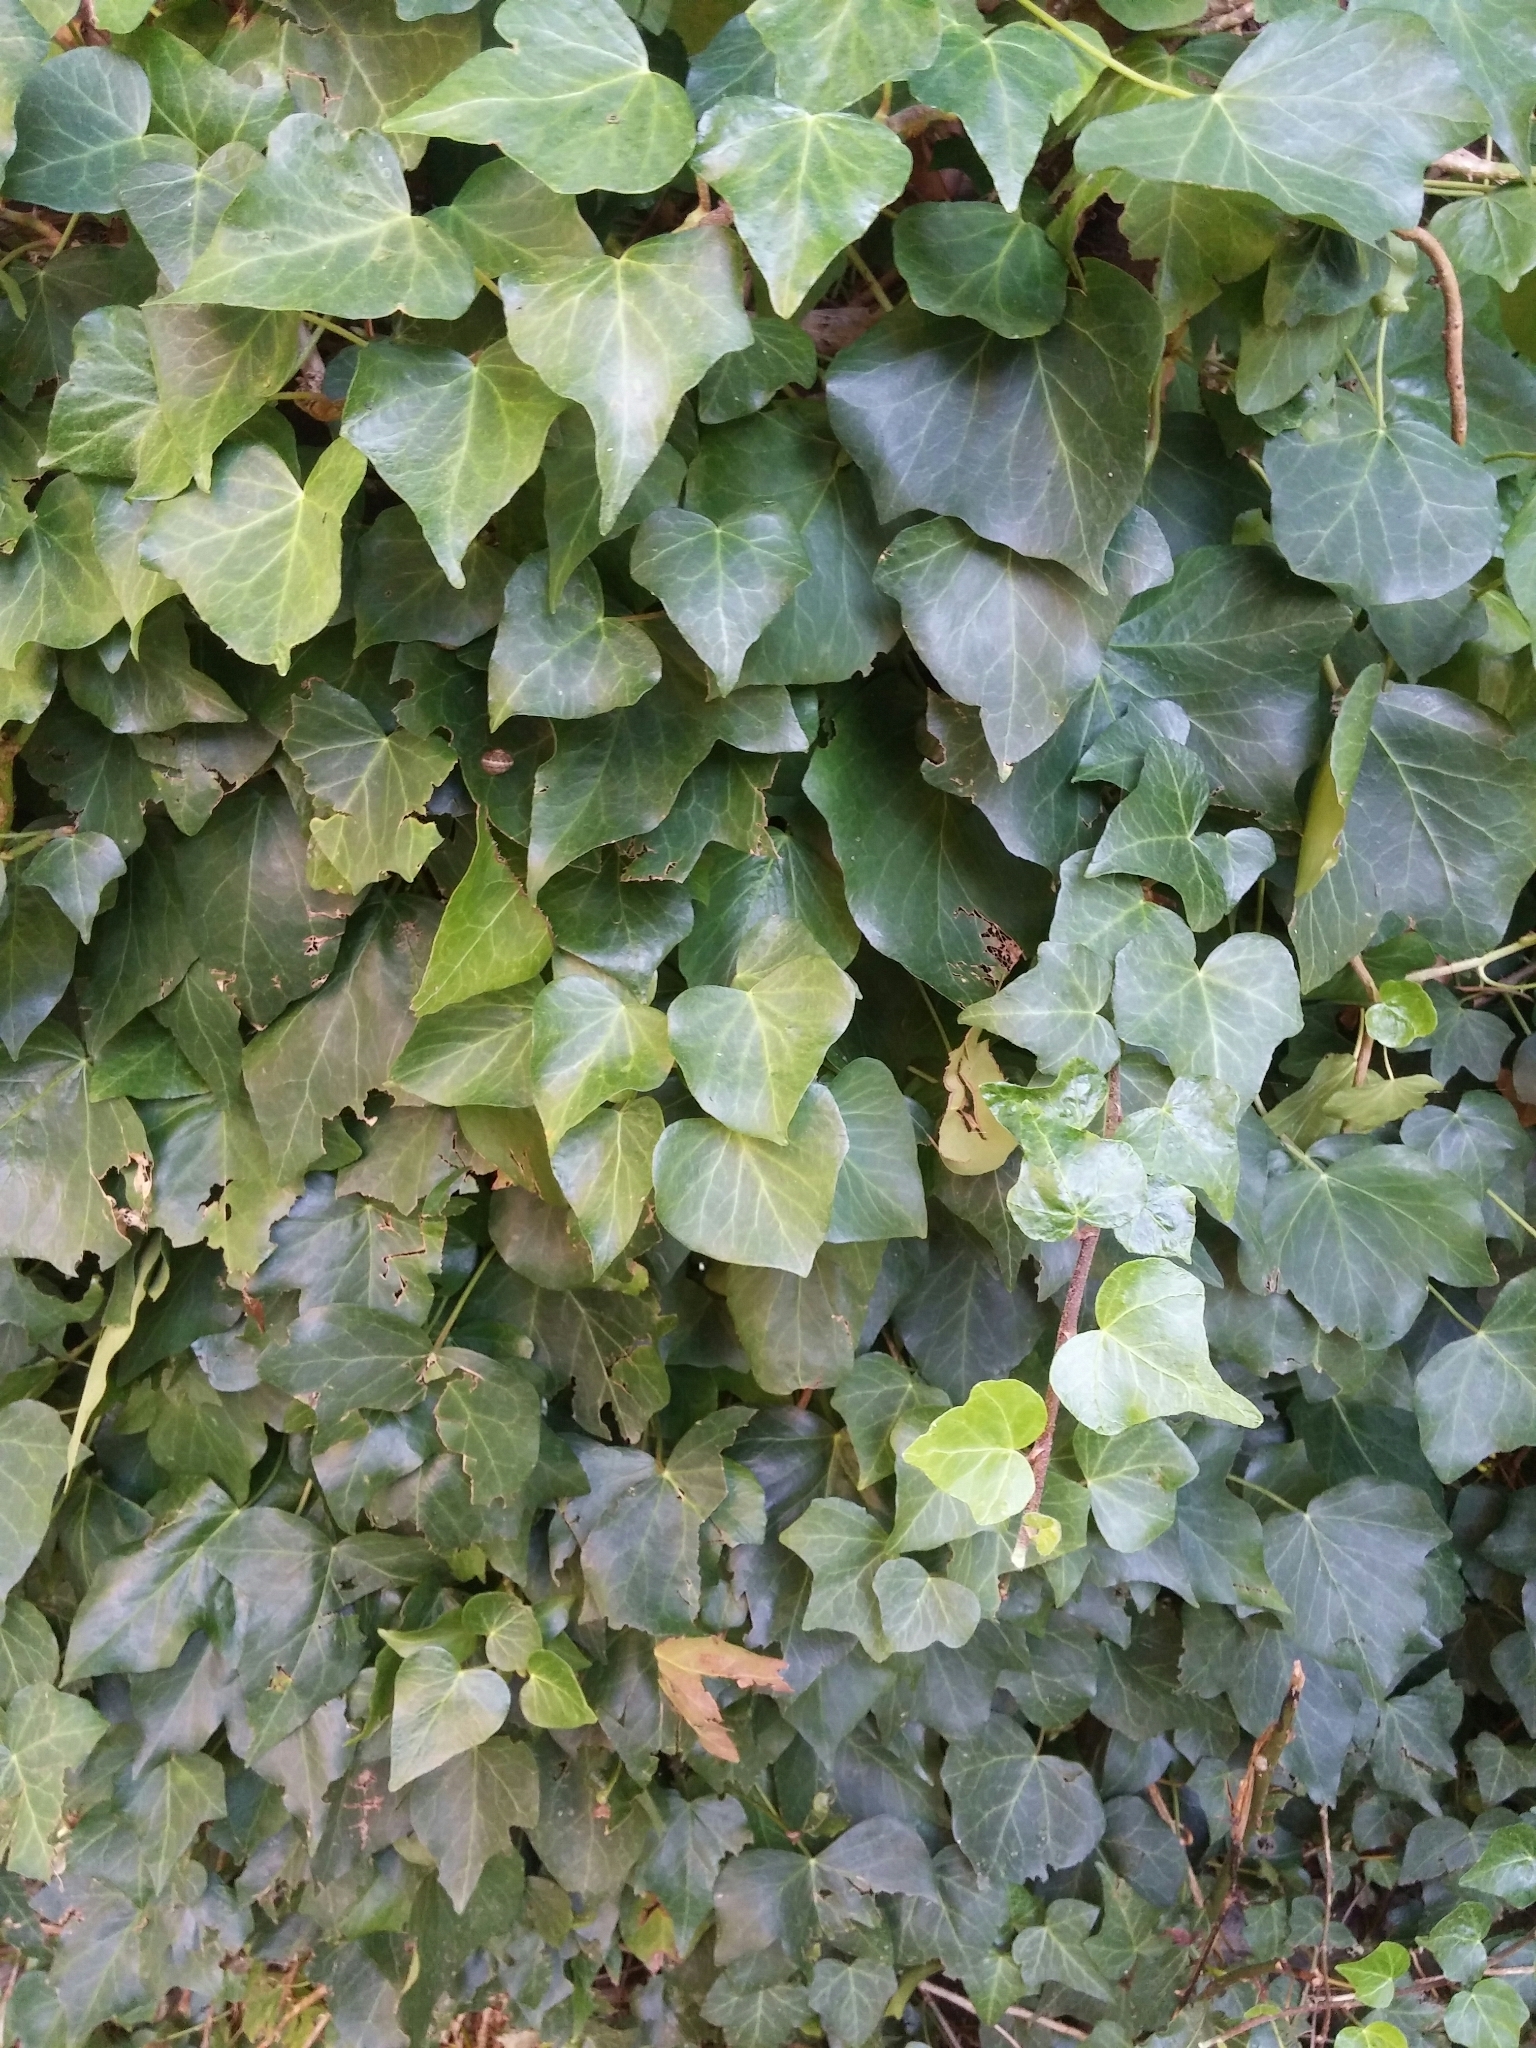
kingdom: Plantae
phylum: Tracheophyta
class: Magnoliopsida
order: Apiales
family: Araliaceae
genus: Hedera
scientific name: Hedera helix
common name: Ivy
